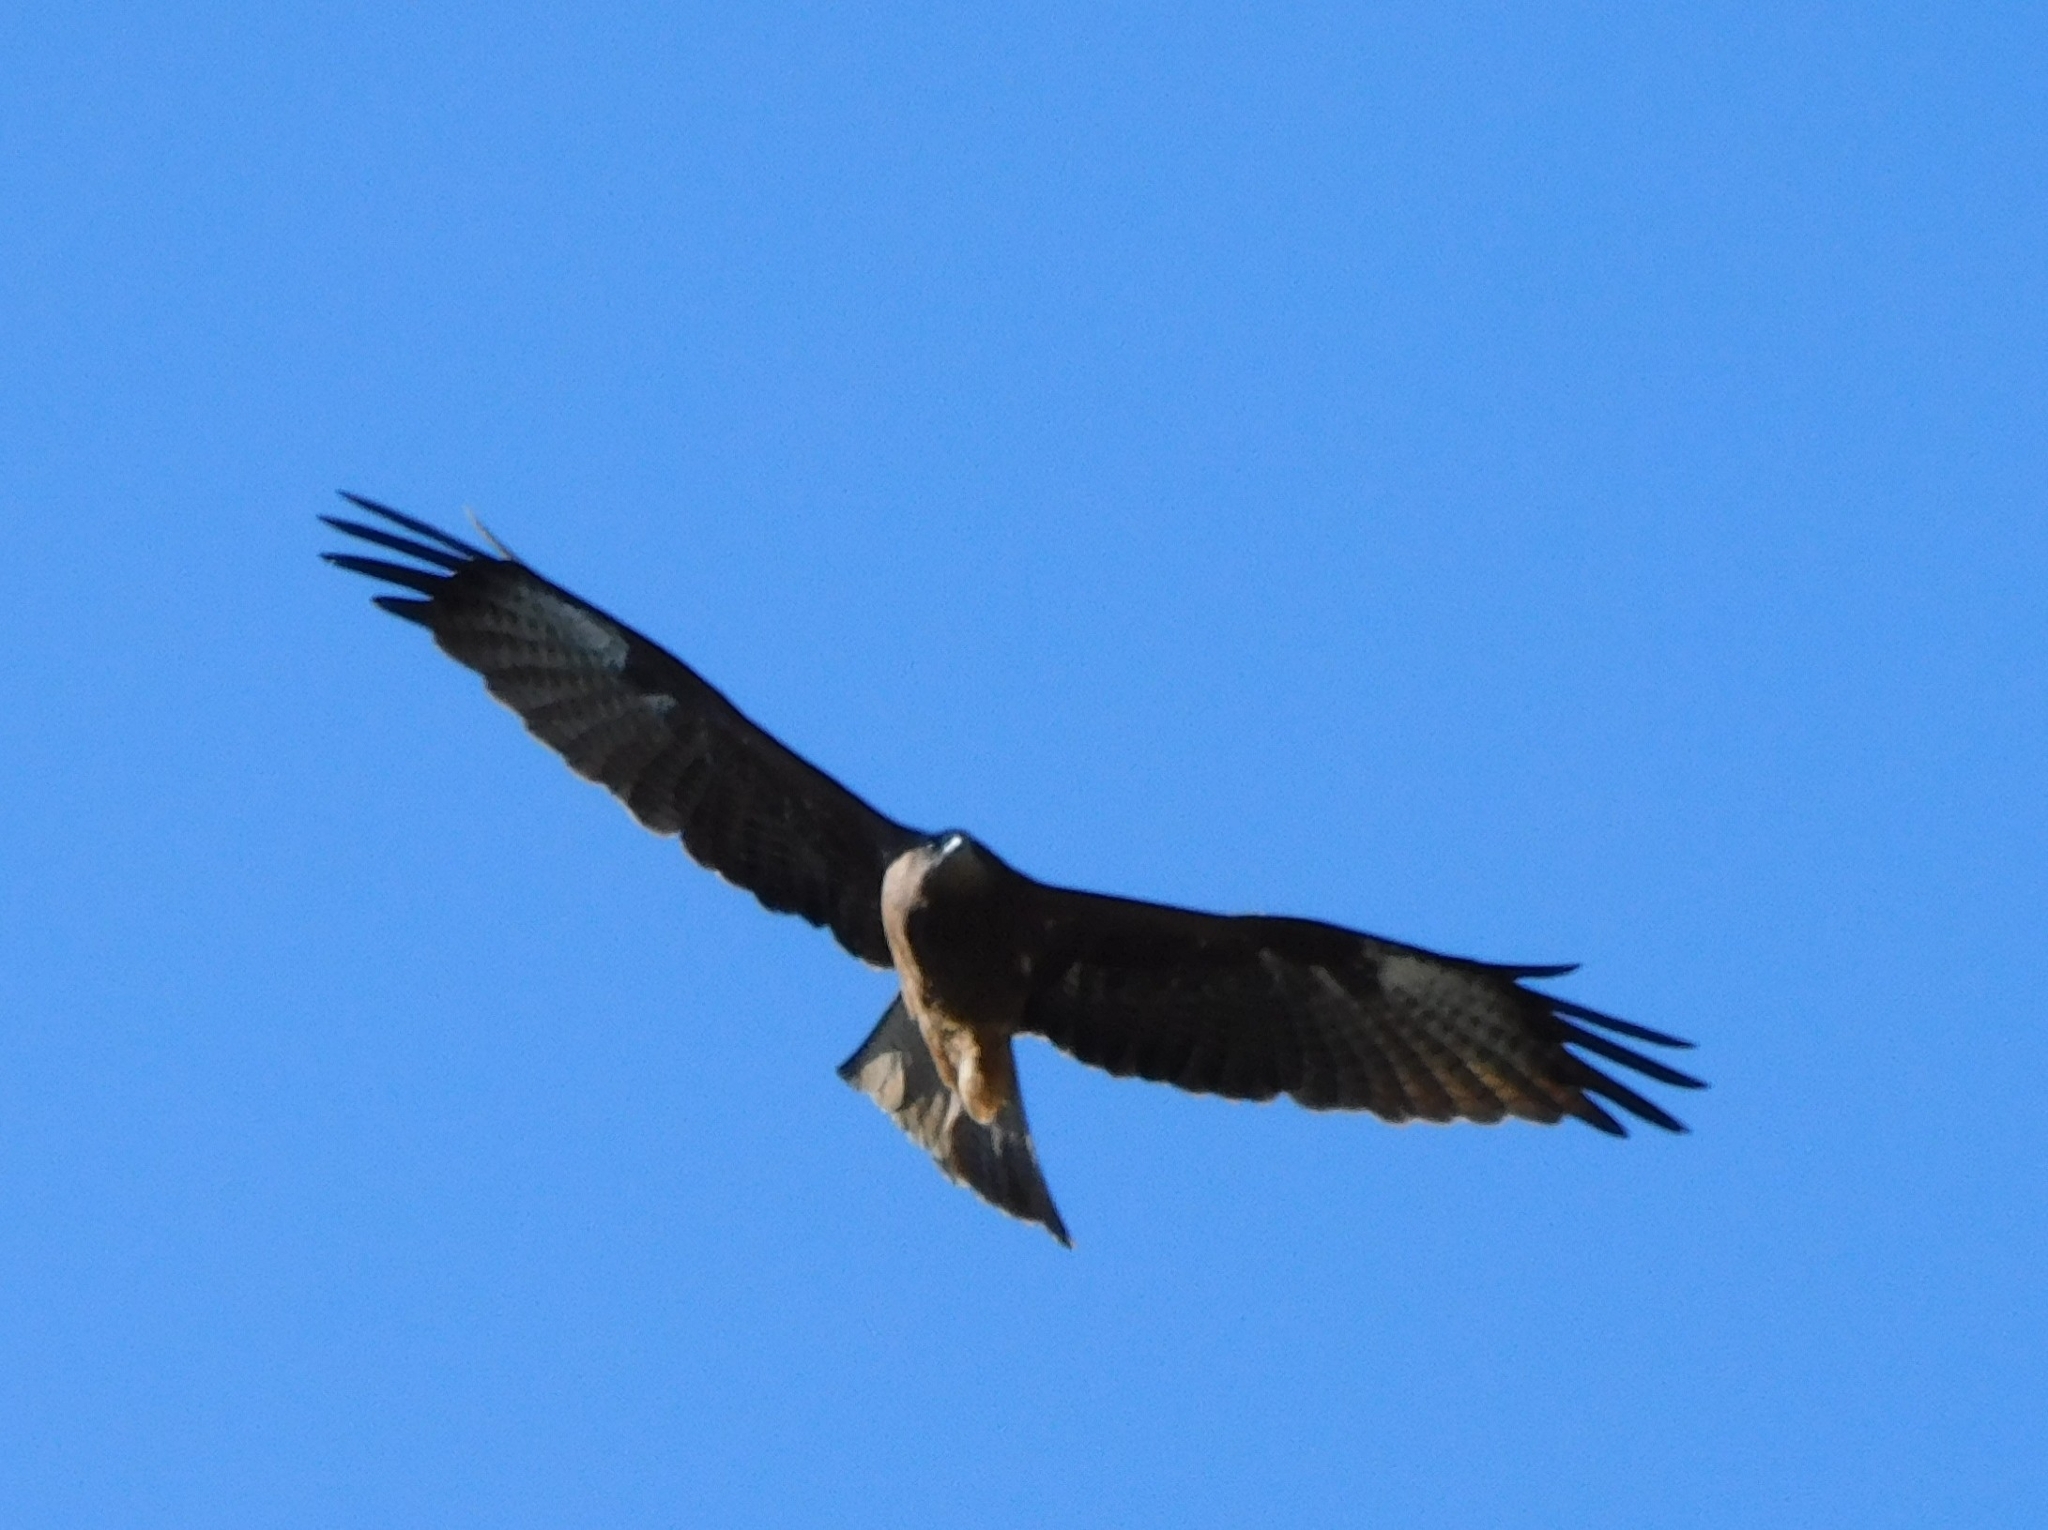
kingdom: Animalia
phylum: Chordata
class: Aves
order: Accipitriformes
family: Accipitridae
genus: Milvus
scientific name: Milvus migrans
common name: Black kite
